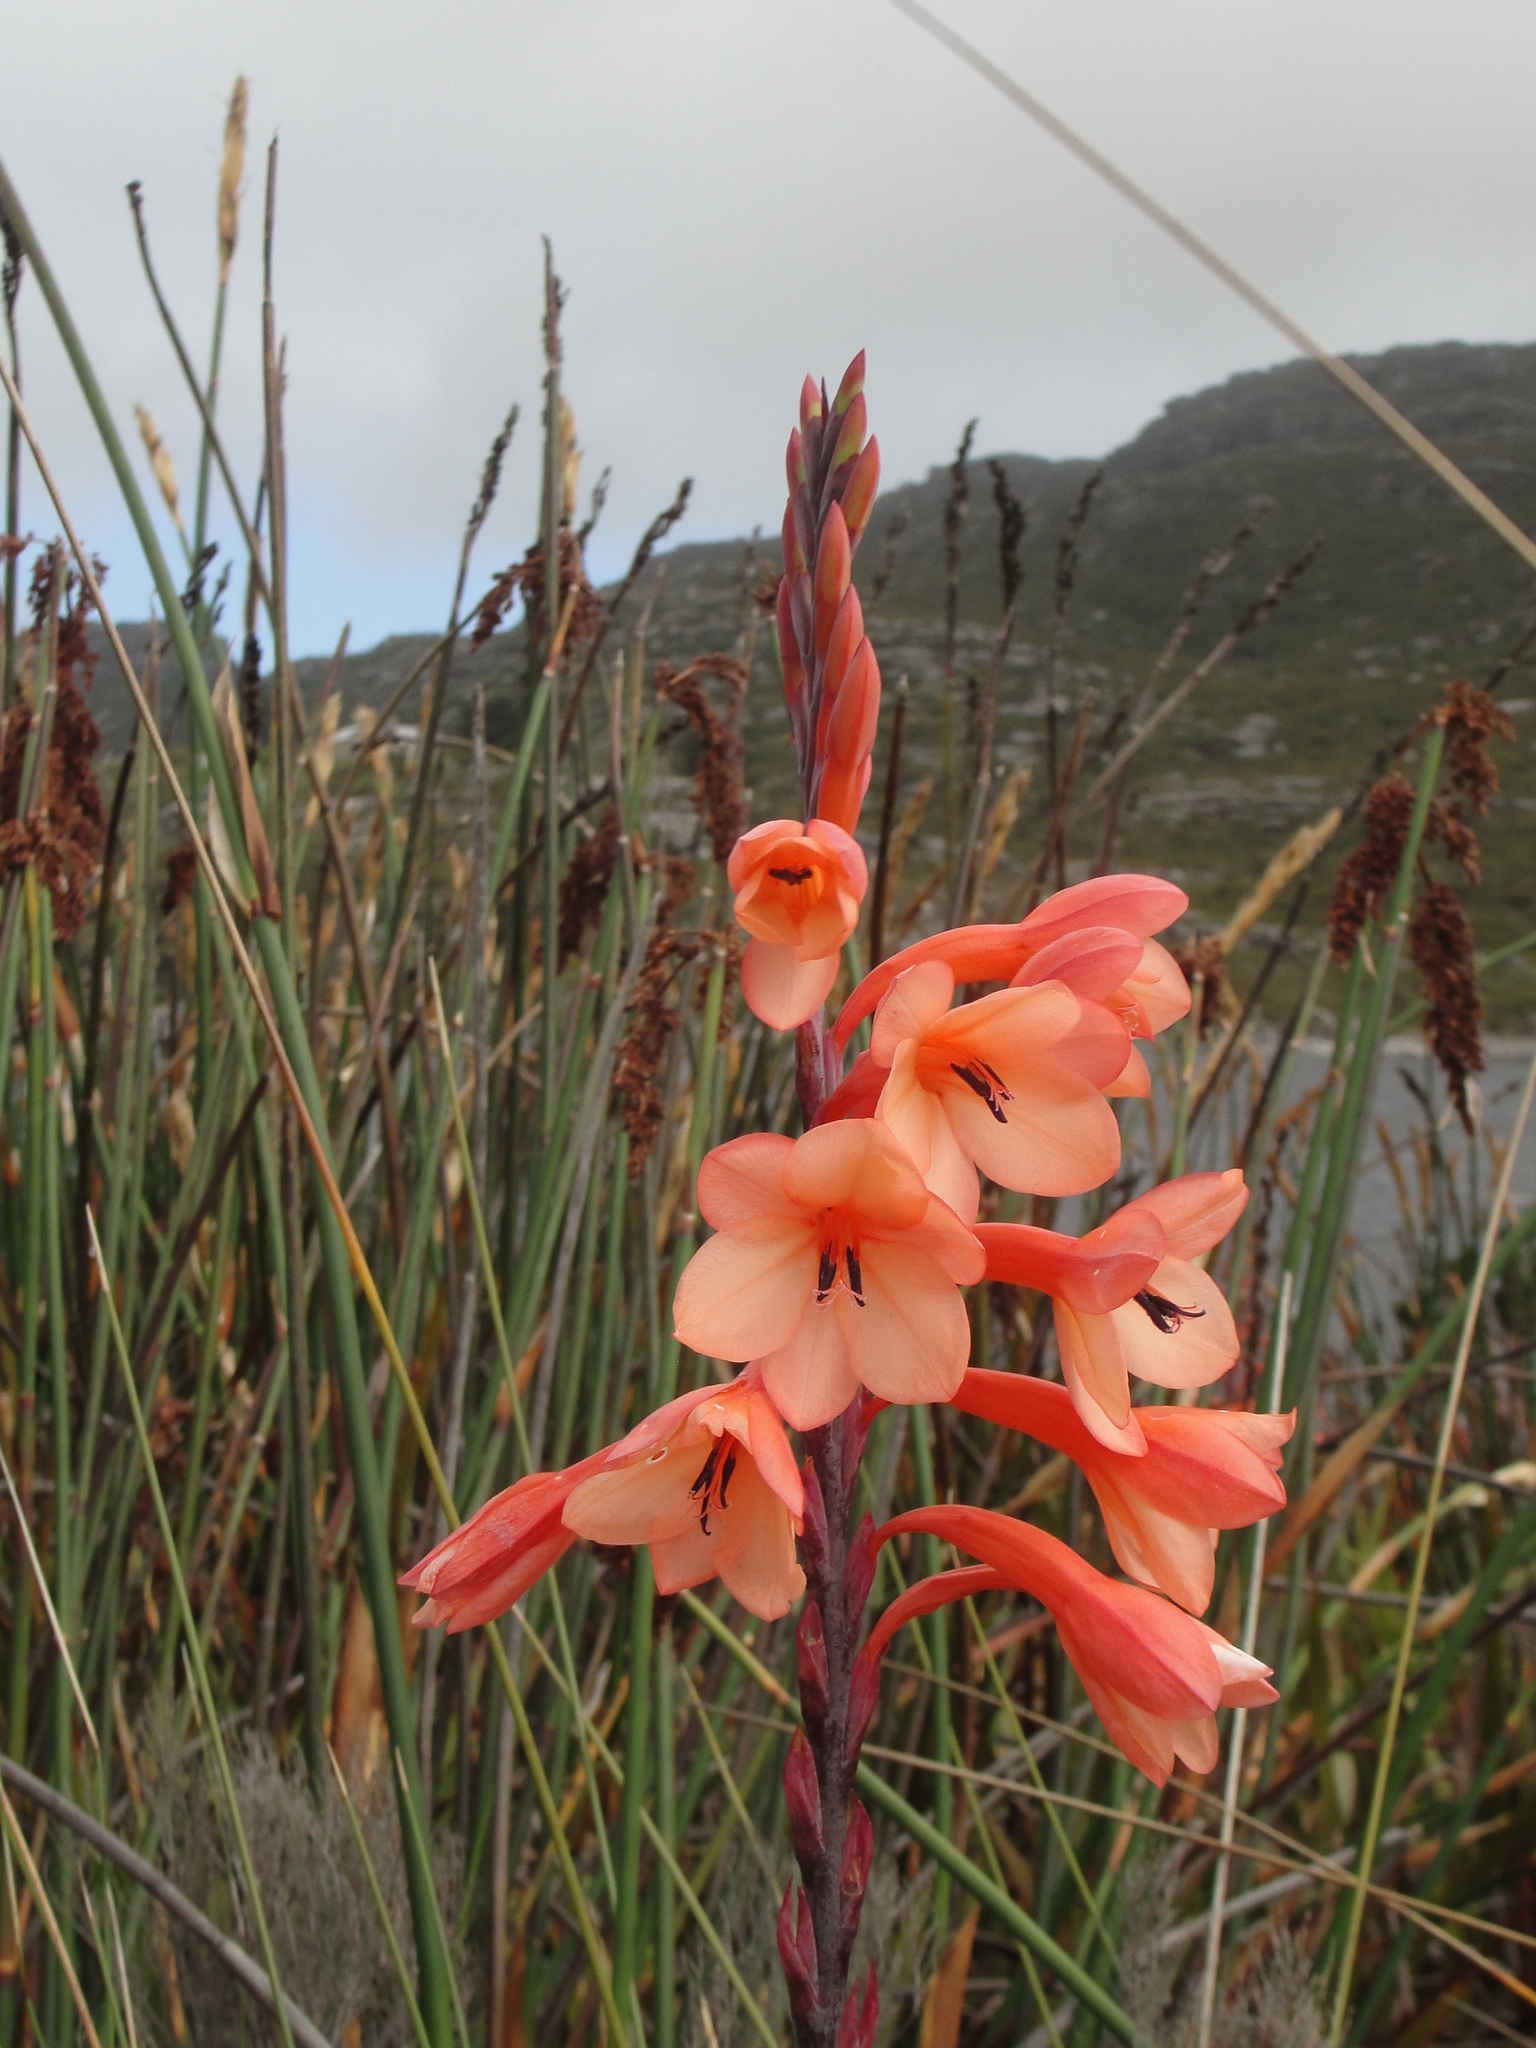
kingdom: Plantae
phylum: Tracheophyta
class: Liliopsida
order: Asparagales
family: Iridaceae
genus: Watsonia
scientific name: Watsonia tabularis
